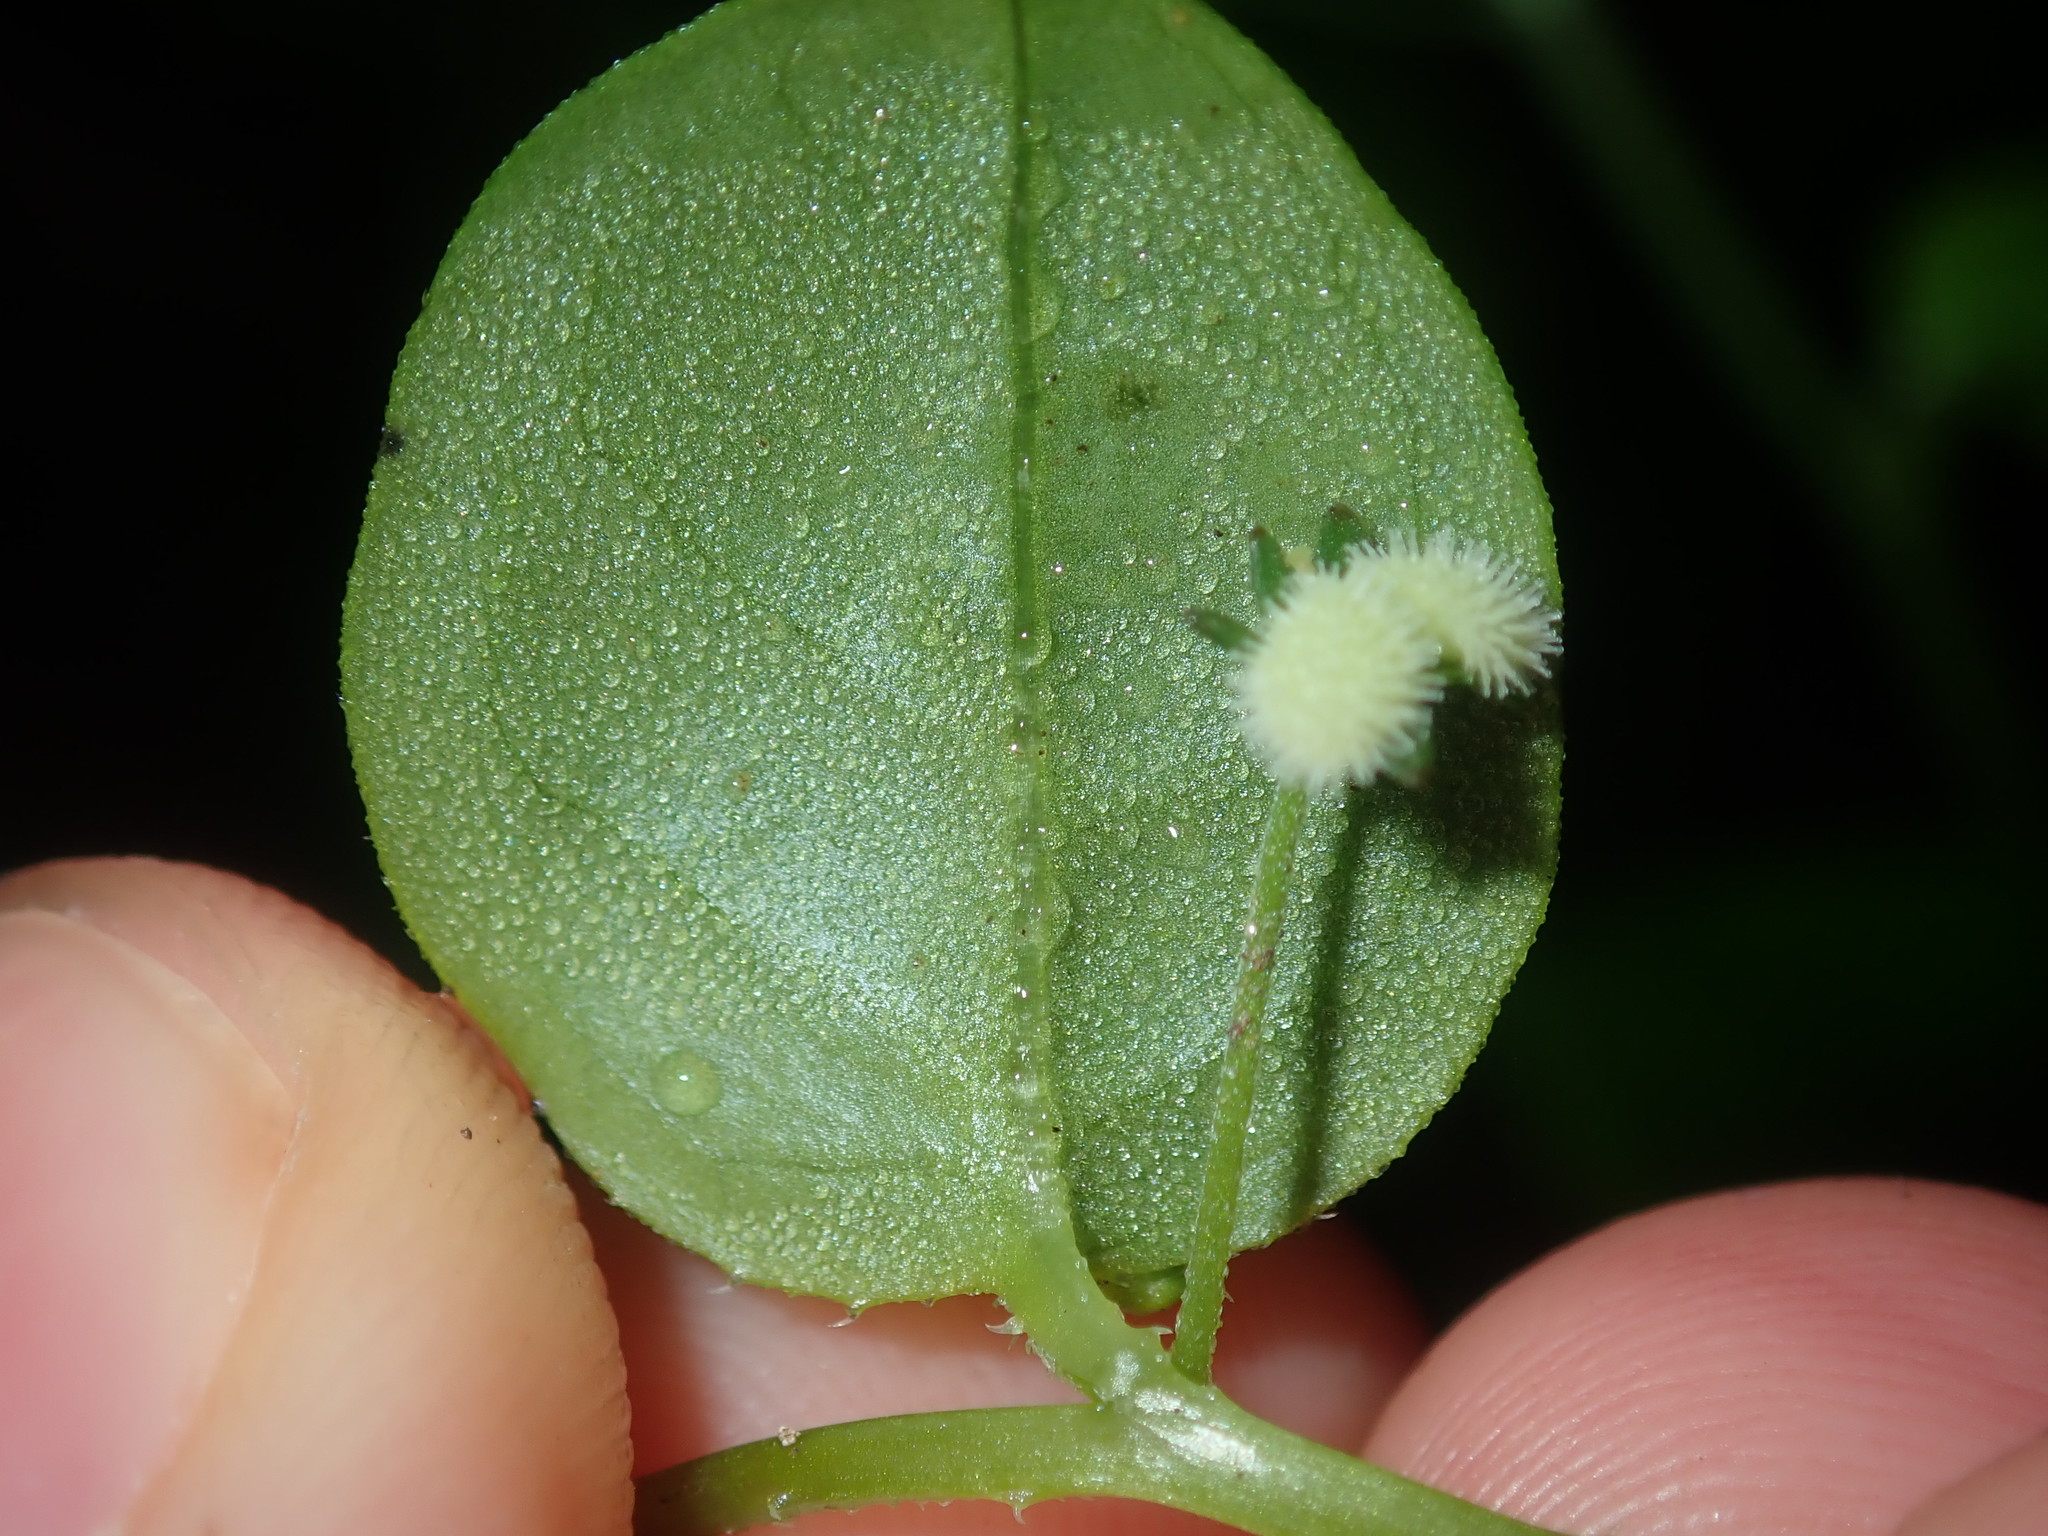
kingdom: Plantae
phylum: Tracheophyta
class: Magnoliopsida
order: Boraginales
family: Boraginaceae
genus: Hackelia
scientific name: Hackelia latifolia
